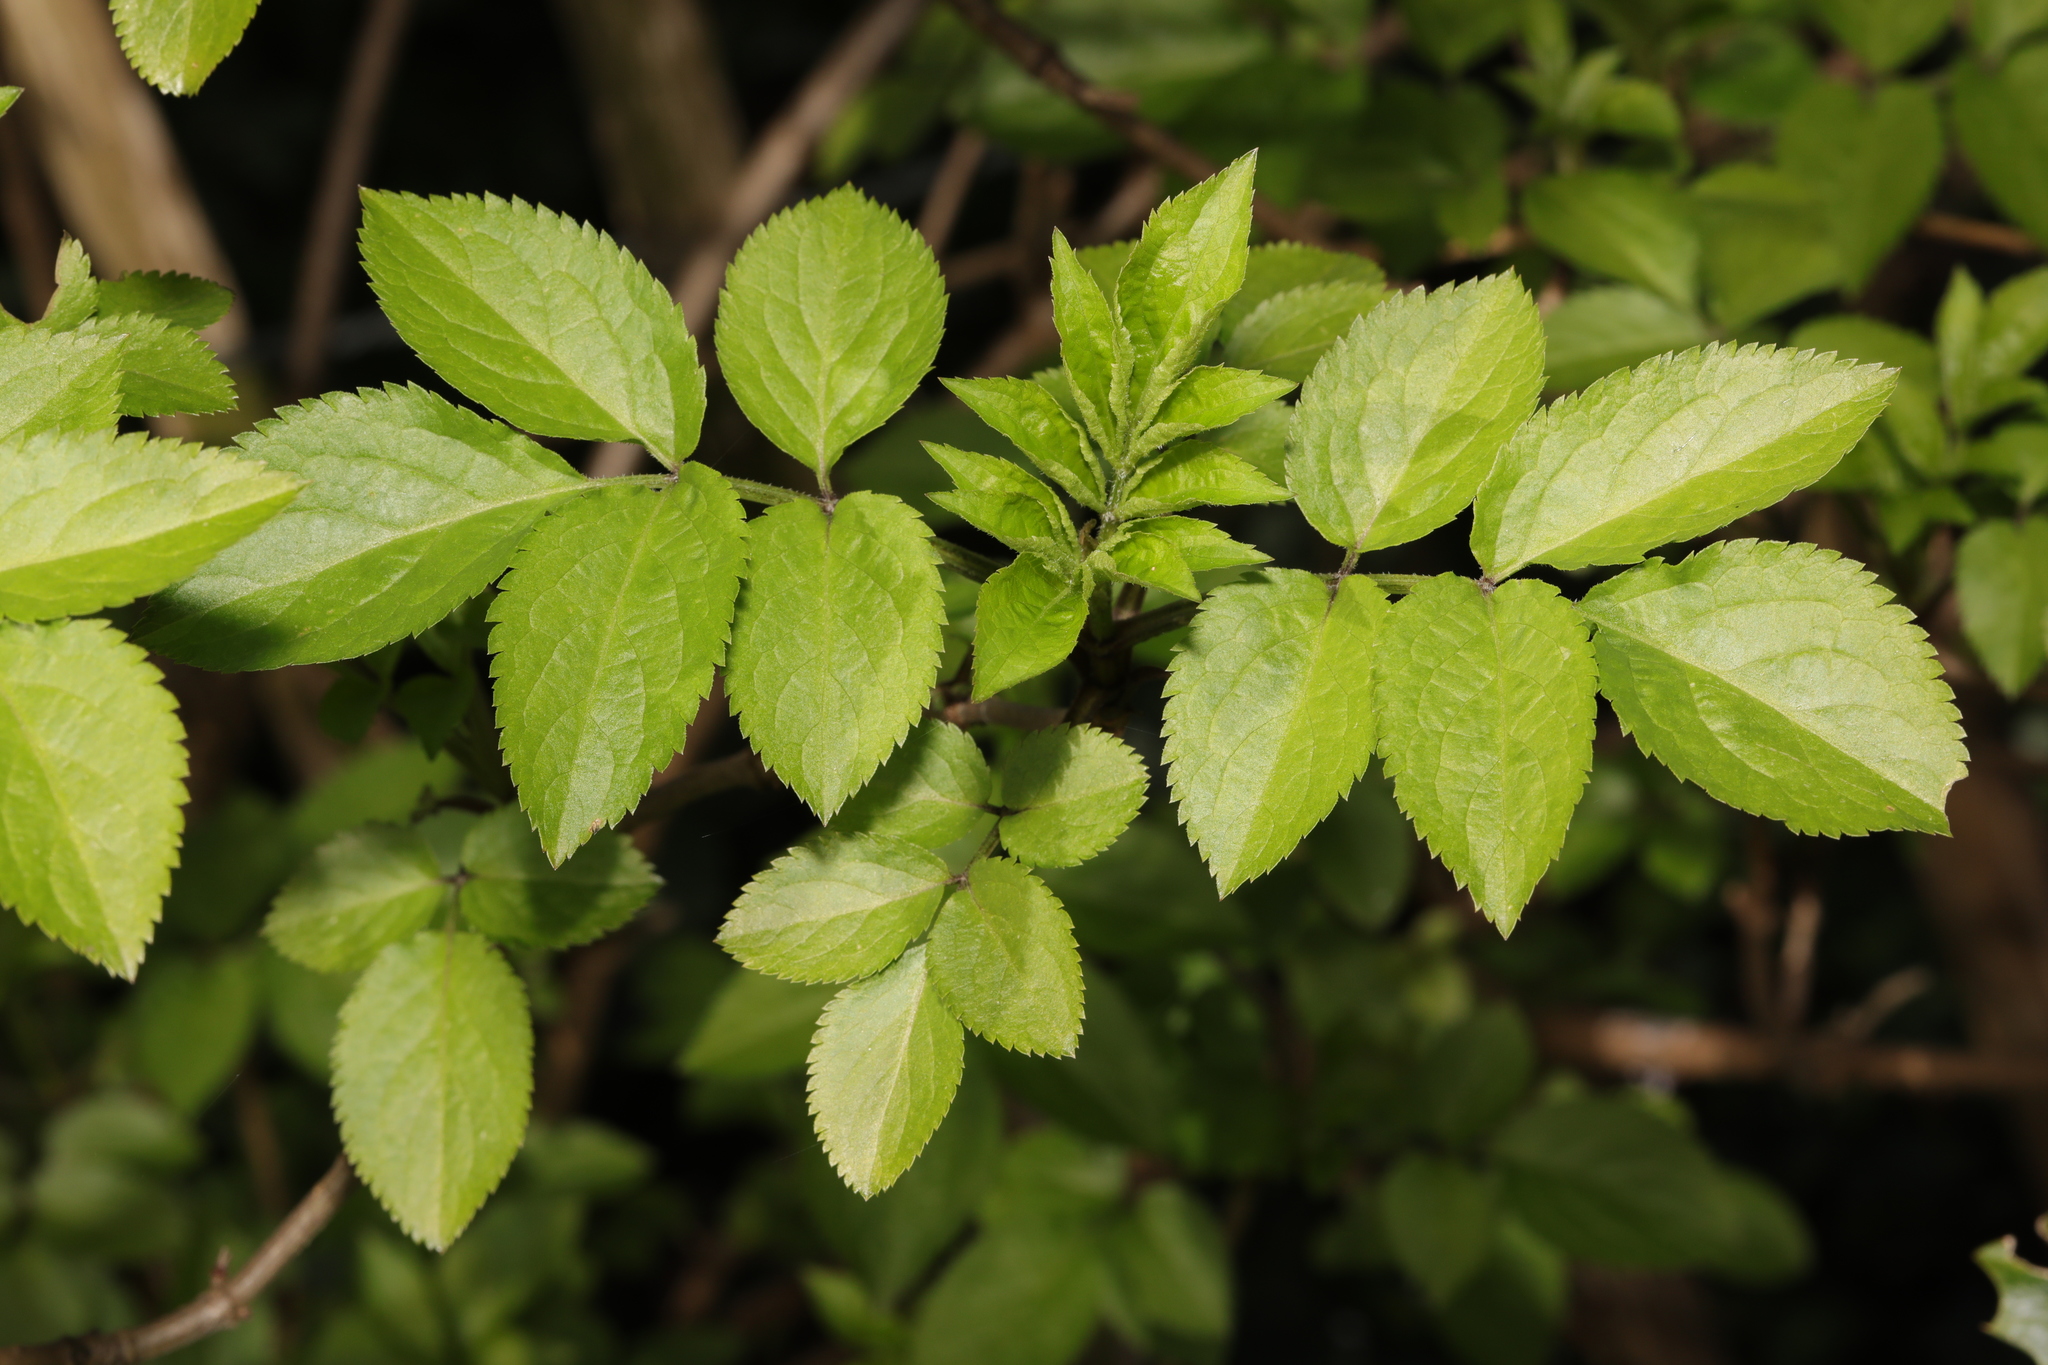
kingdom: Plantae
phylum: Tracheophyta
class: Magnoliopsida
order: Dipsacales
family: Viburnaceae
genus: Sambucus
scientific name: Sambucus nigra
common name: Elder
